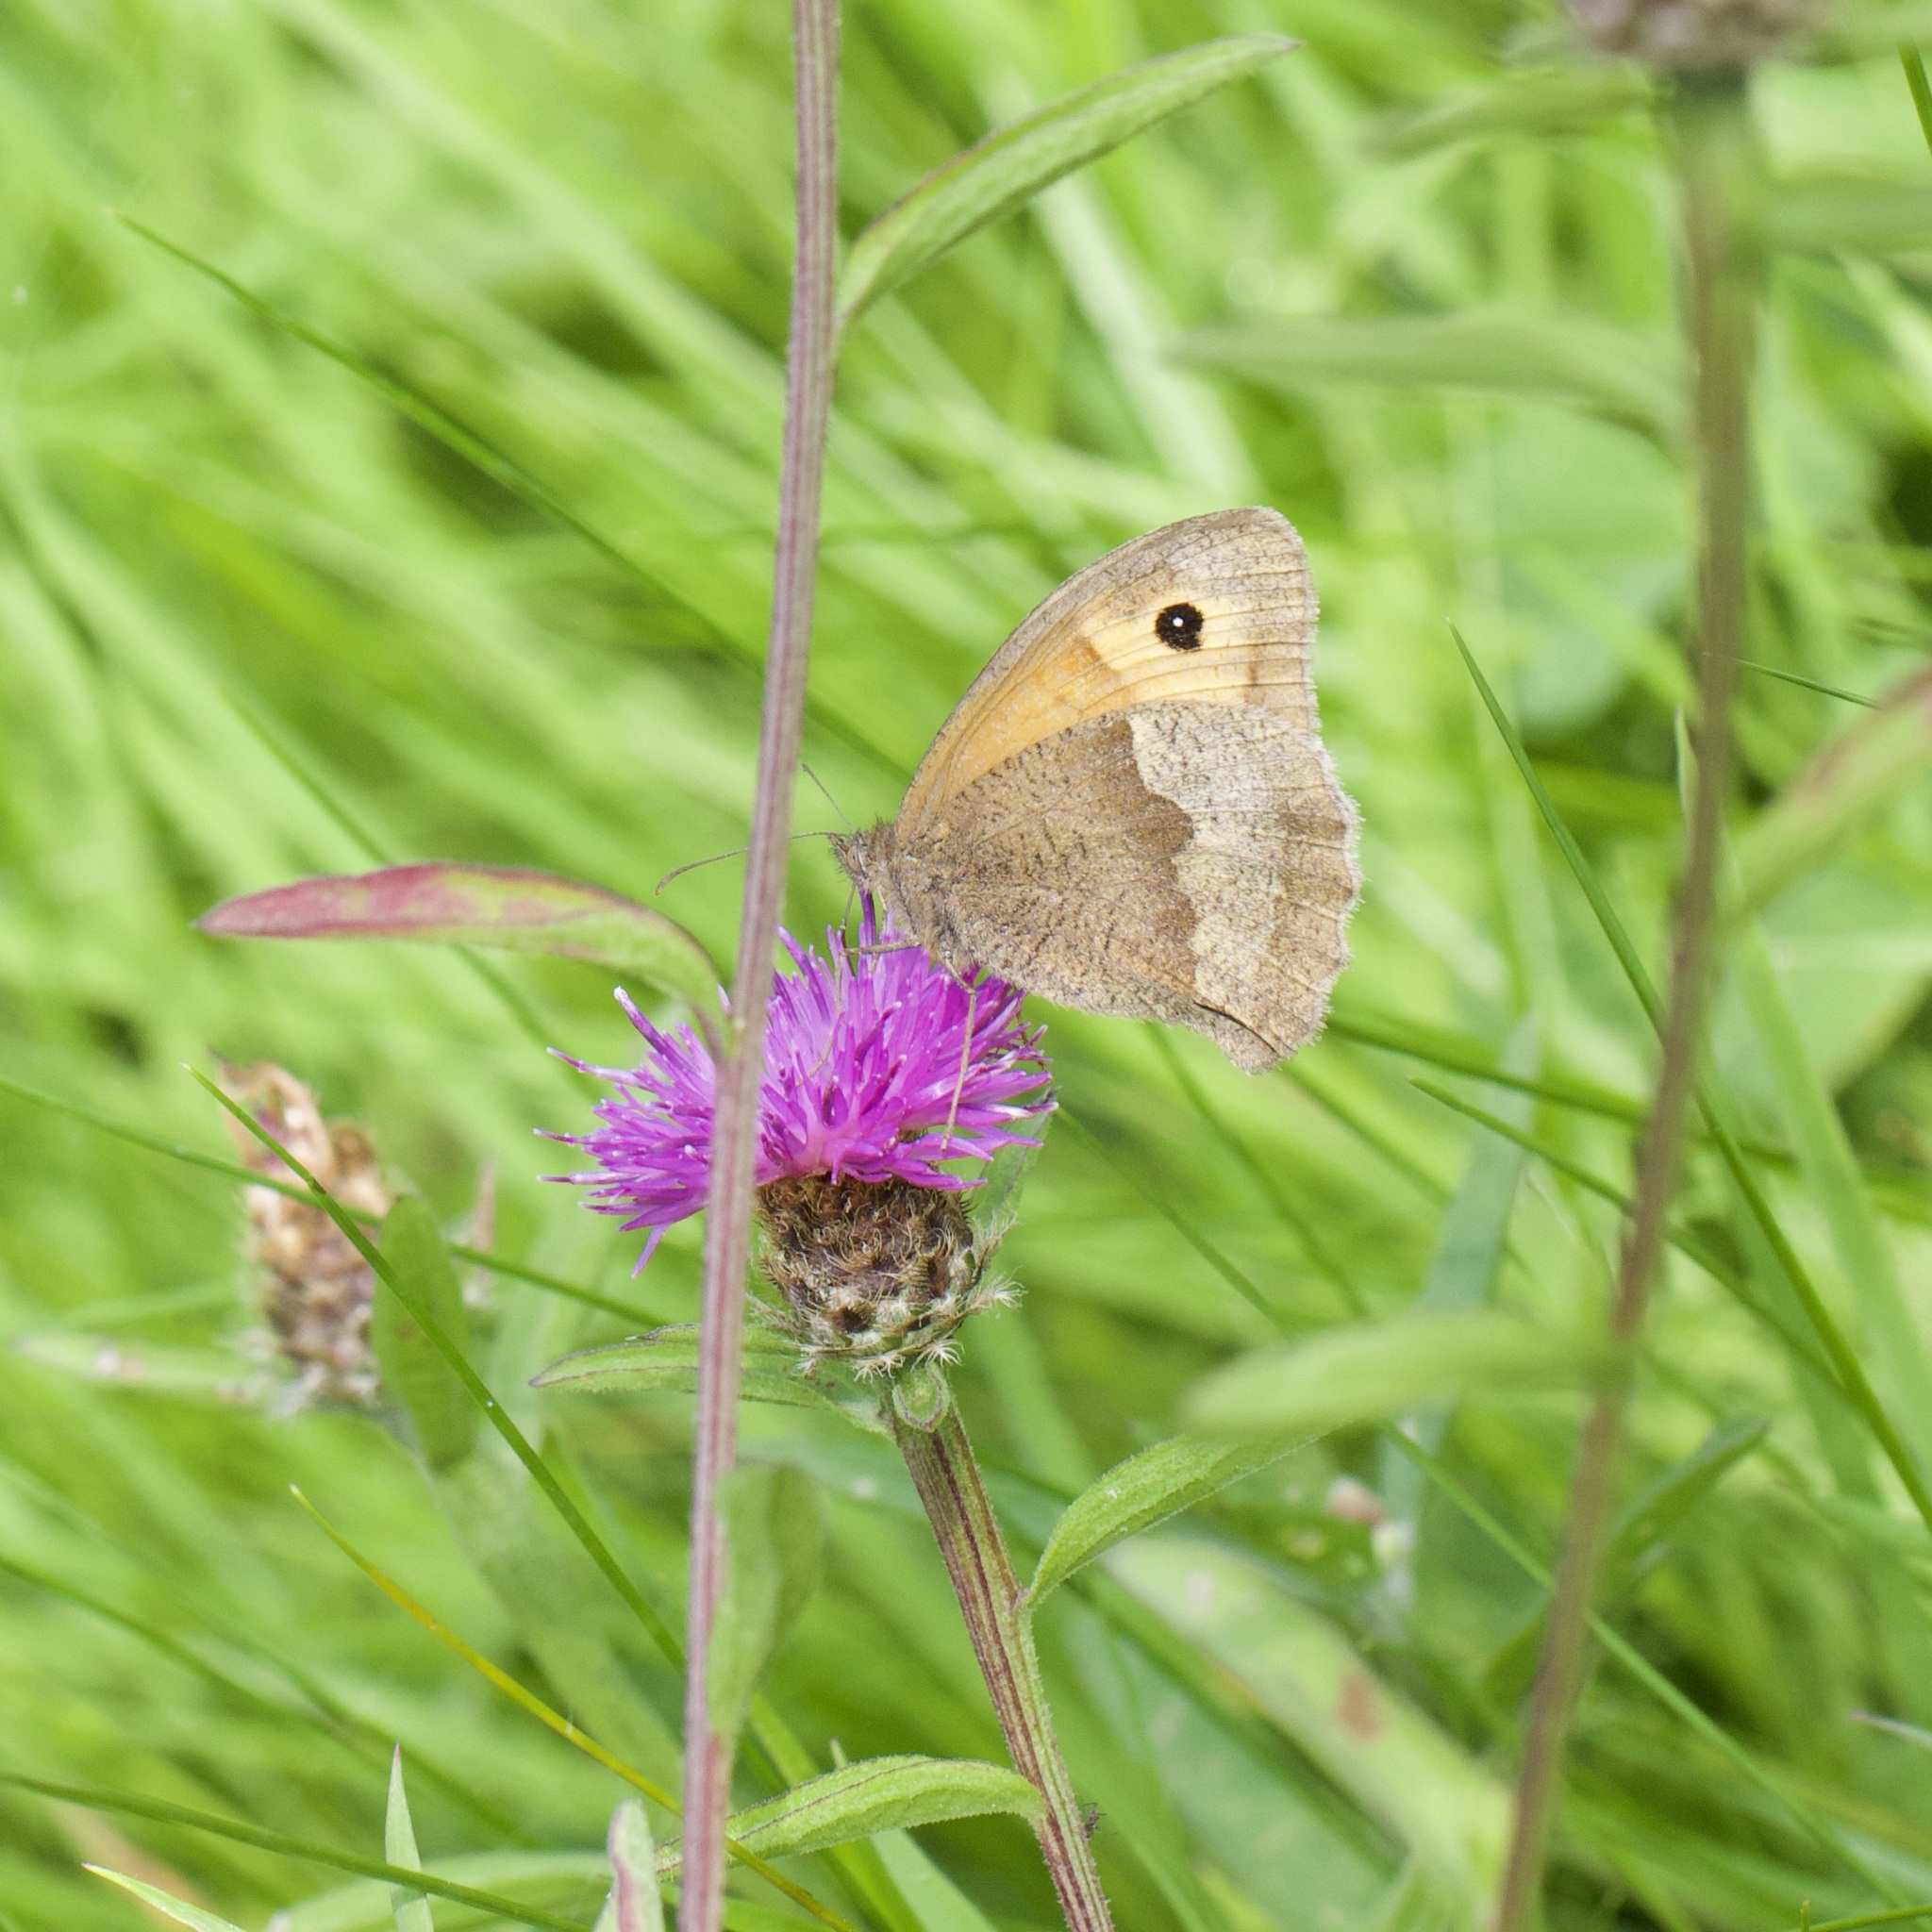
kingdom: Animalia
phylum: Arthropoda
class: Insecta
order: Lepidoptera
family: Nymphalidae
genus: Maniola
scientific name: Maniola jurtina
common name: Meadow brown
